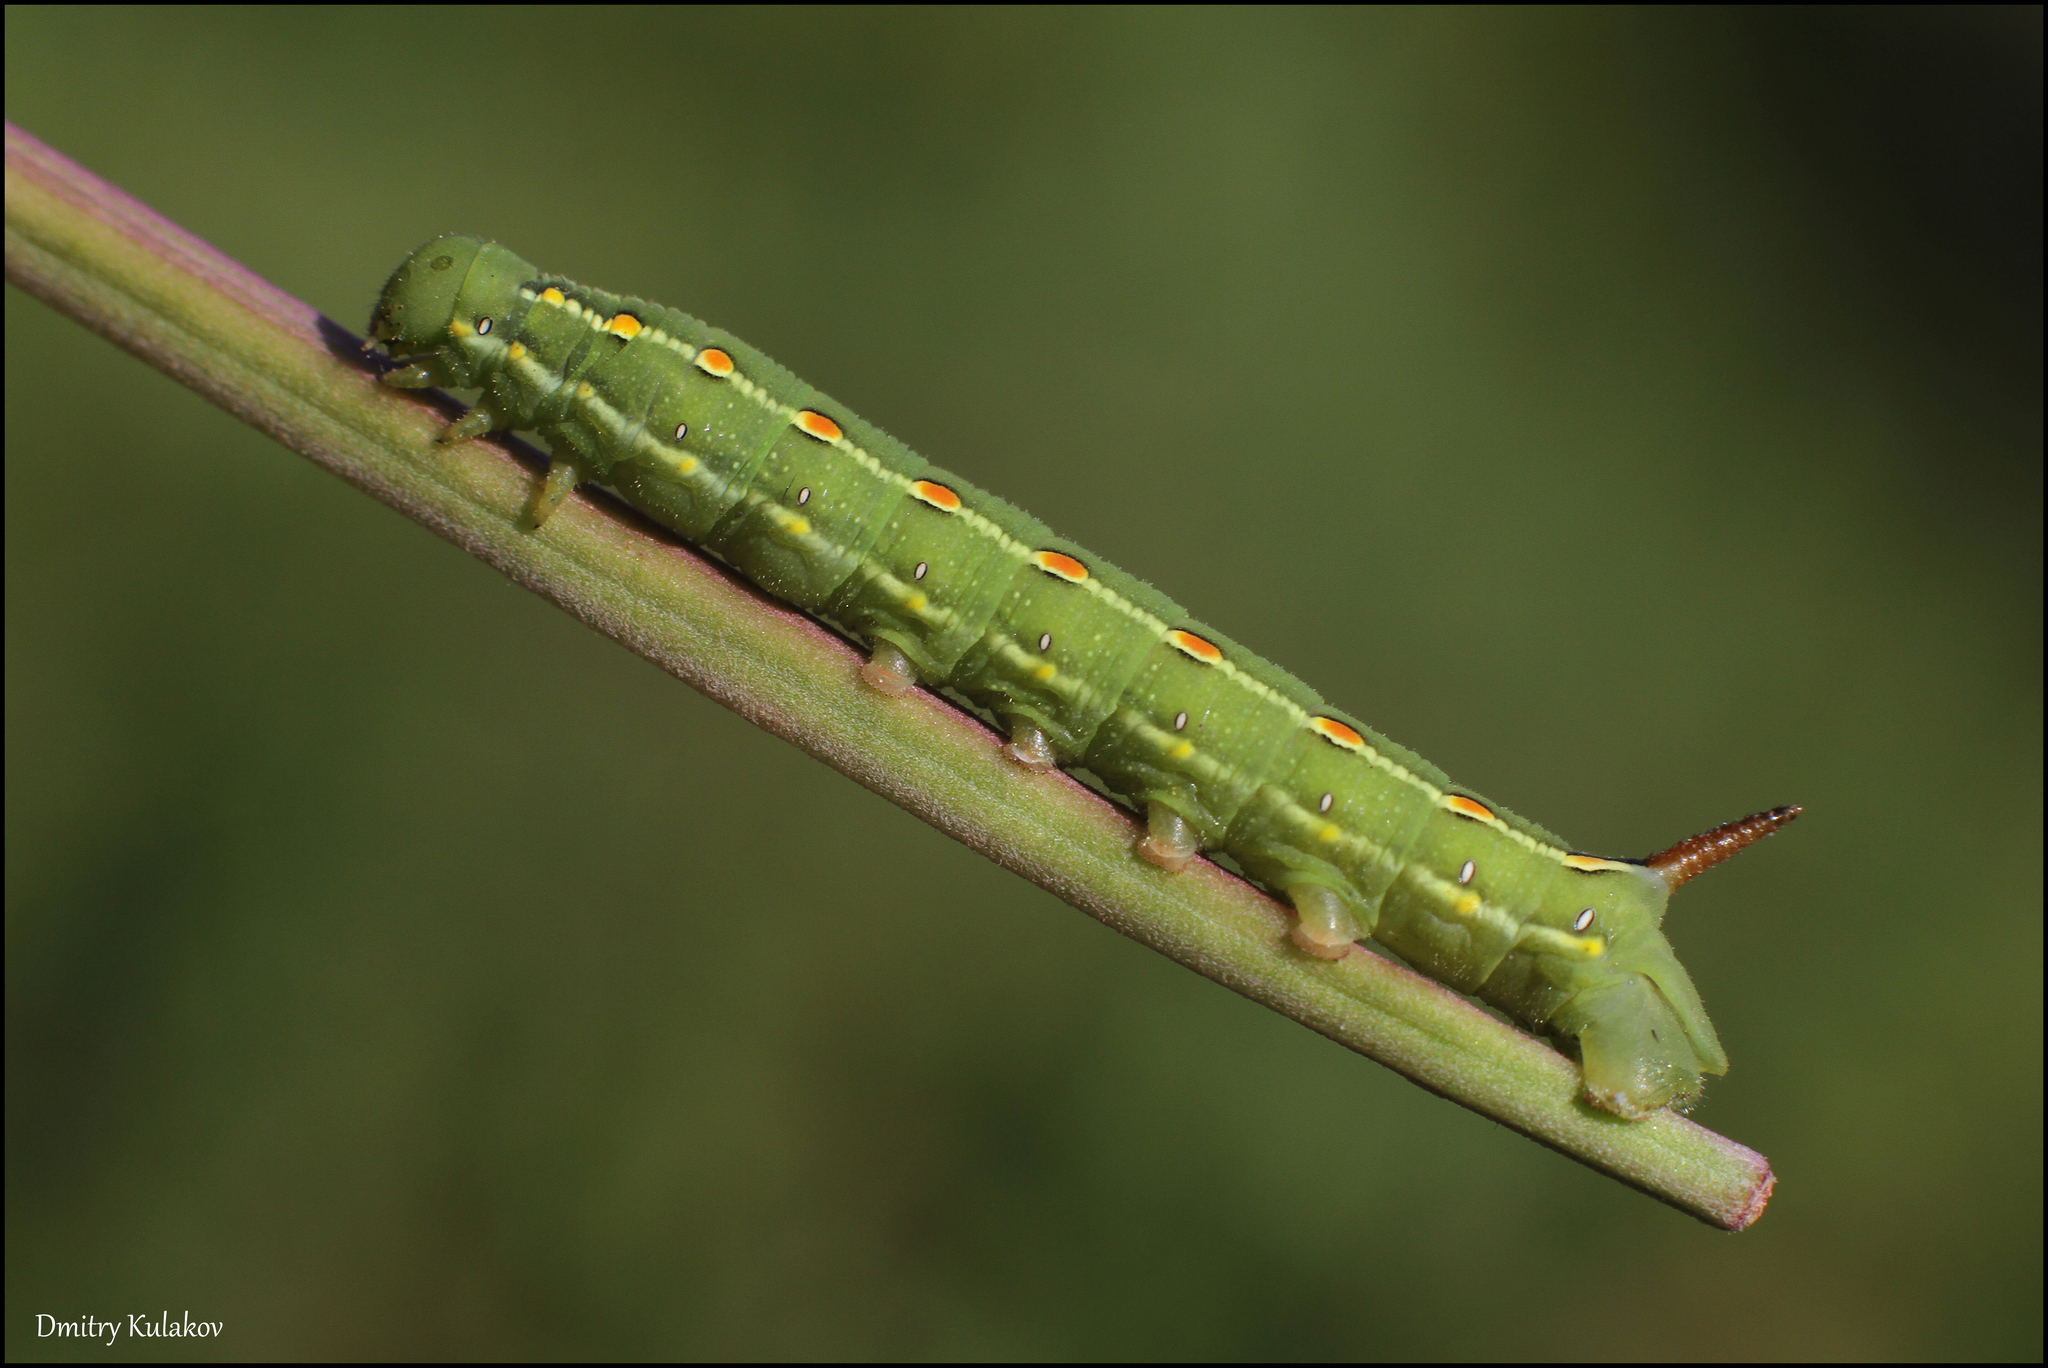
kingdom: Animalia
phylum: Arthropoda
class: Insecta
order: Lepidoptera
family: Sphingidae
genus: Hyles
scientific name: Hyles gallii
